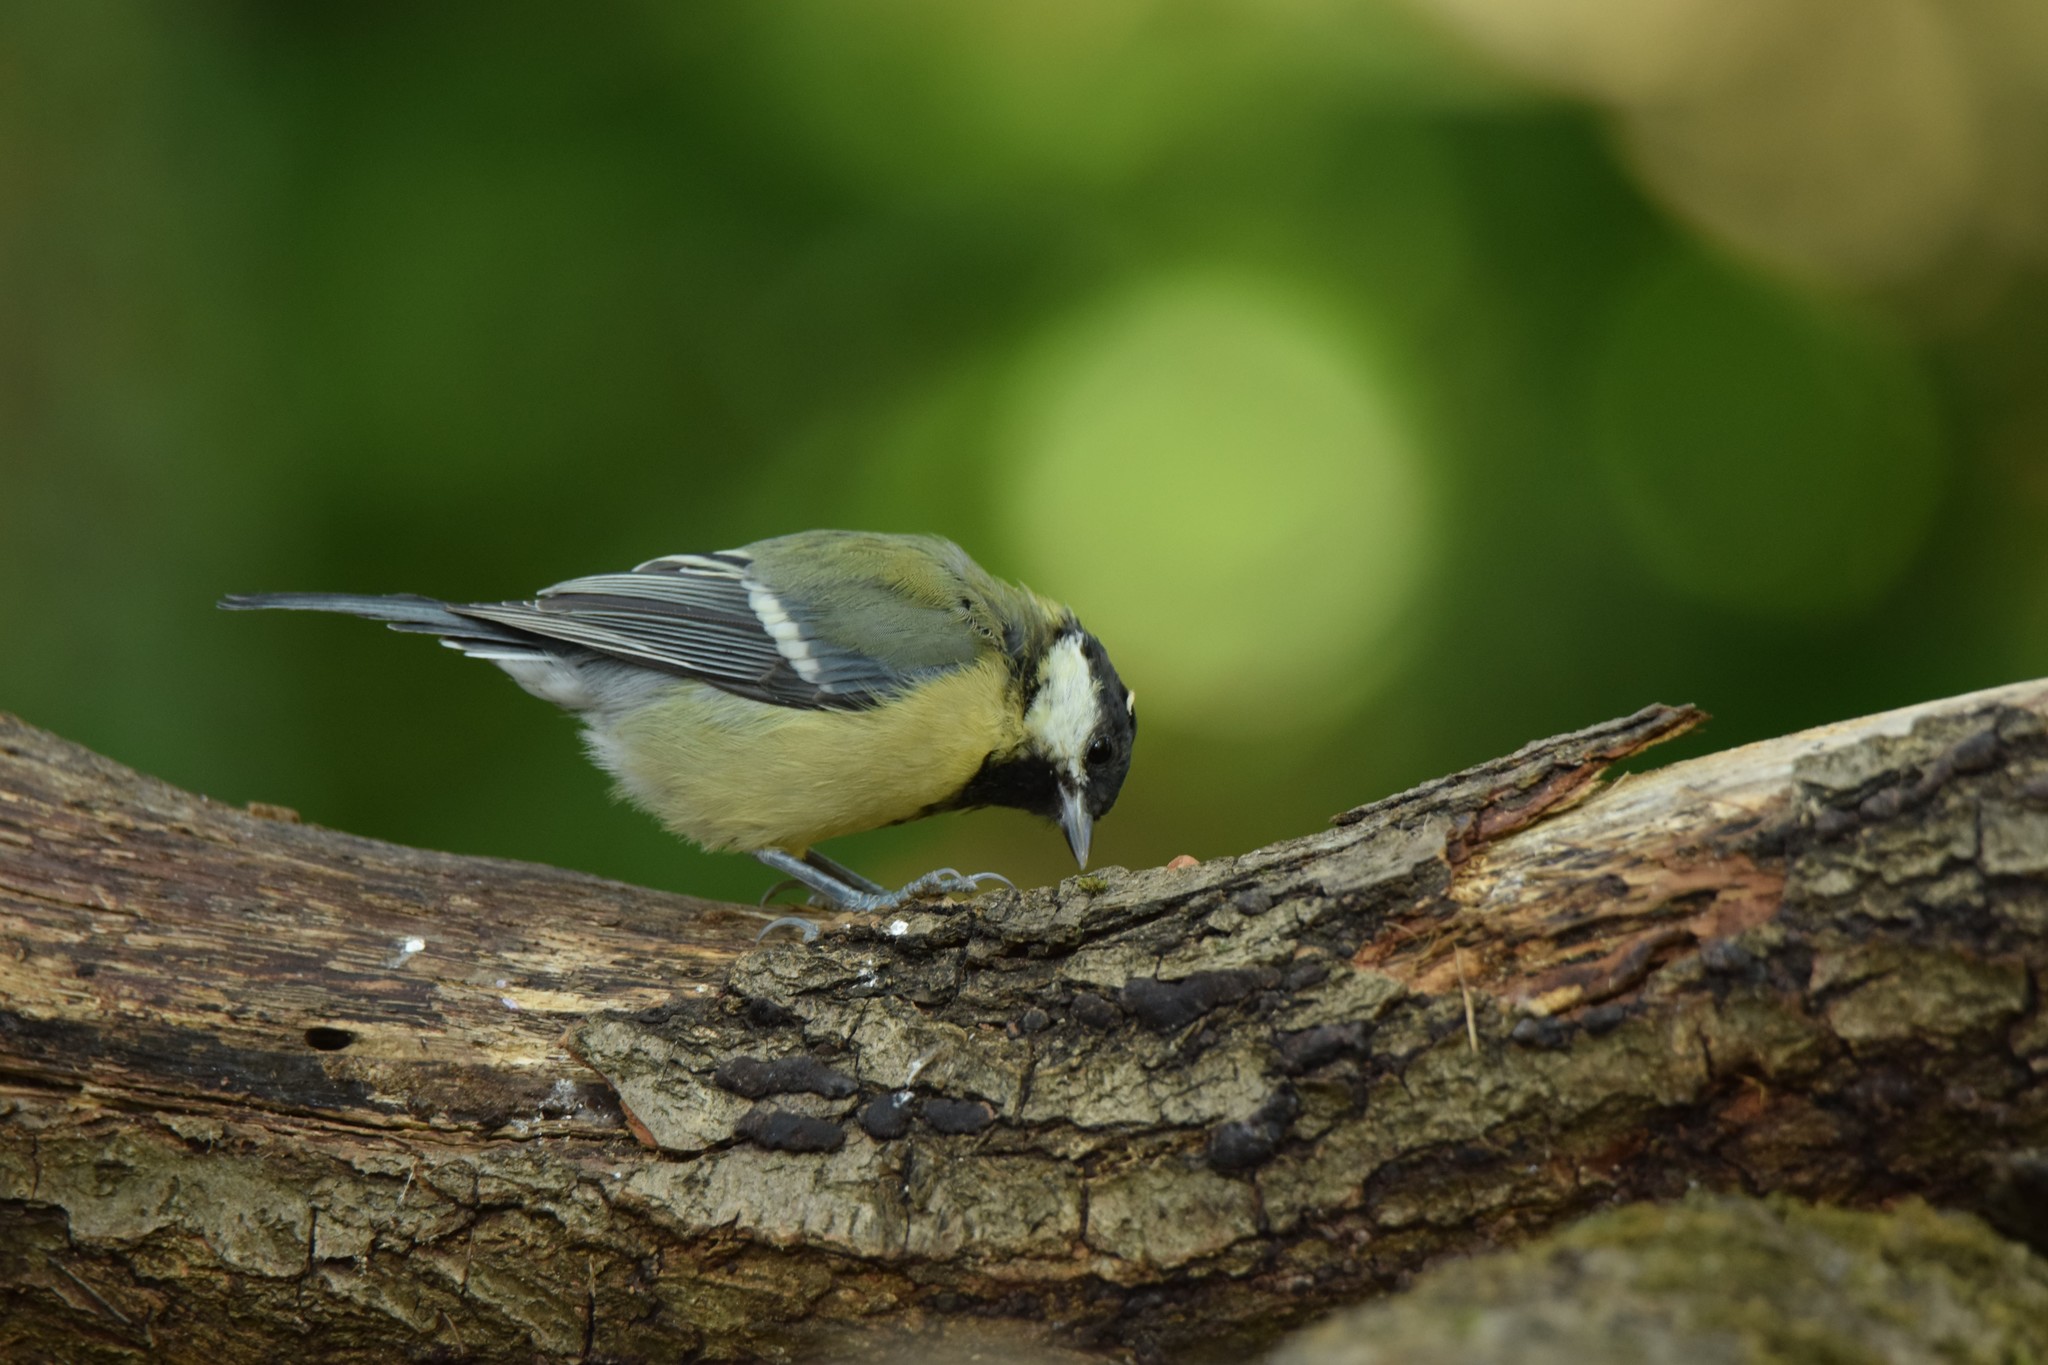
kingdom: Animalia
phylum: Chordata
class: Aves
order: Passeriformes
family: Paridae
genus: Parus
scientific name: Parus major
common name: Great tit
